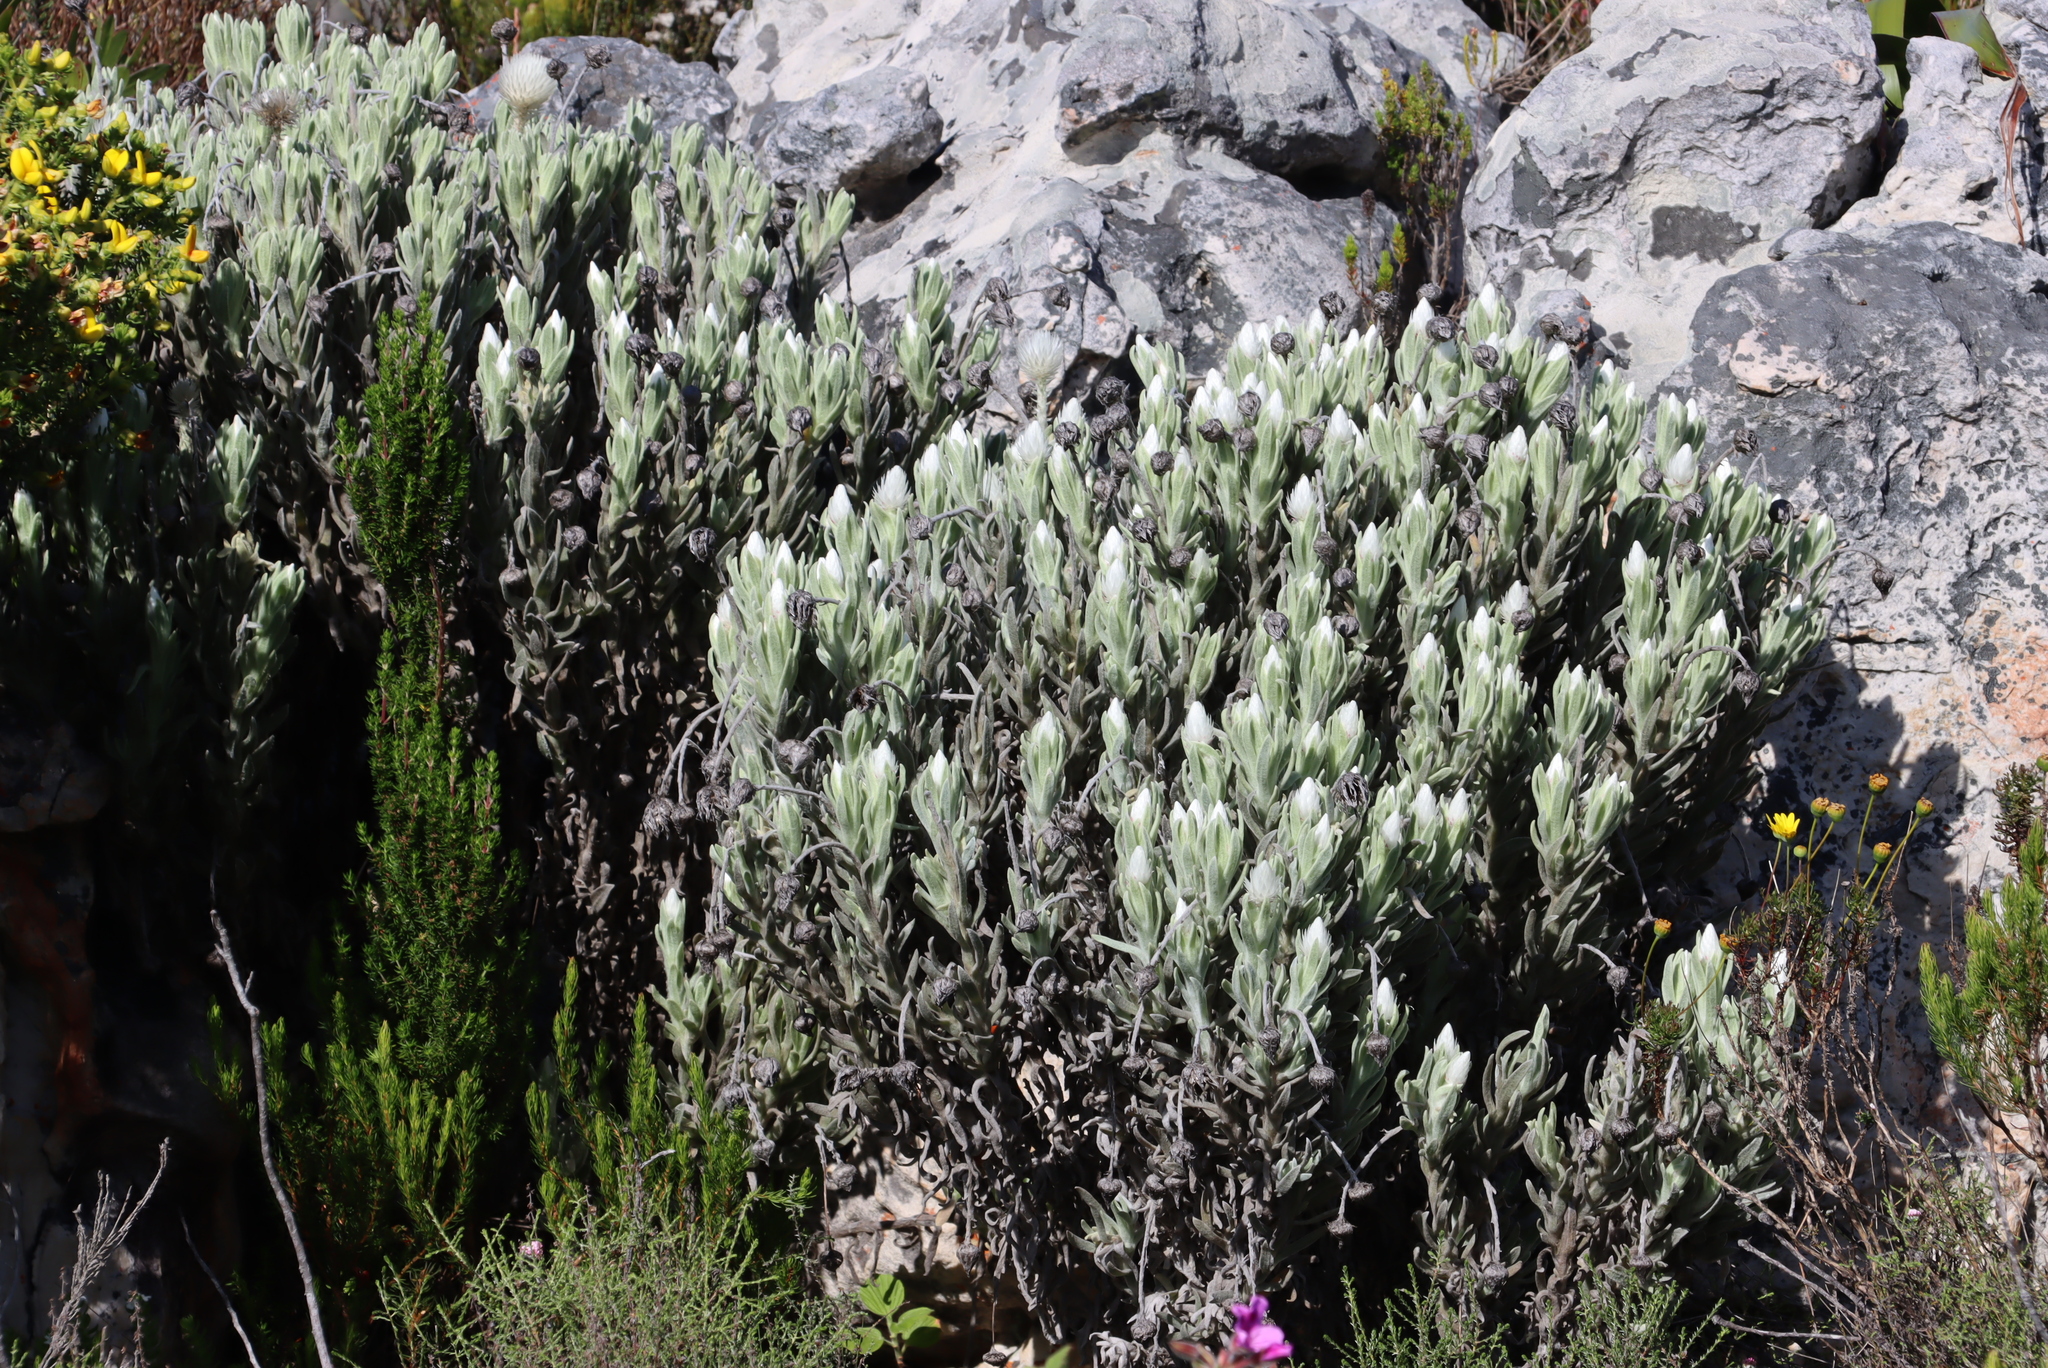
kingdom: Plantae
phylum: Tracheophyta
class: Magnoliopsida
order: Asterales
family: Asteraceae
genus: Syncarpha
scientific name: Syncarpha vestita
